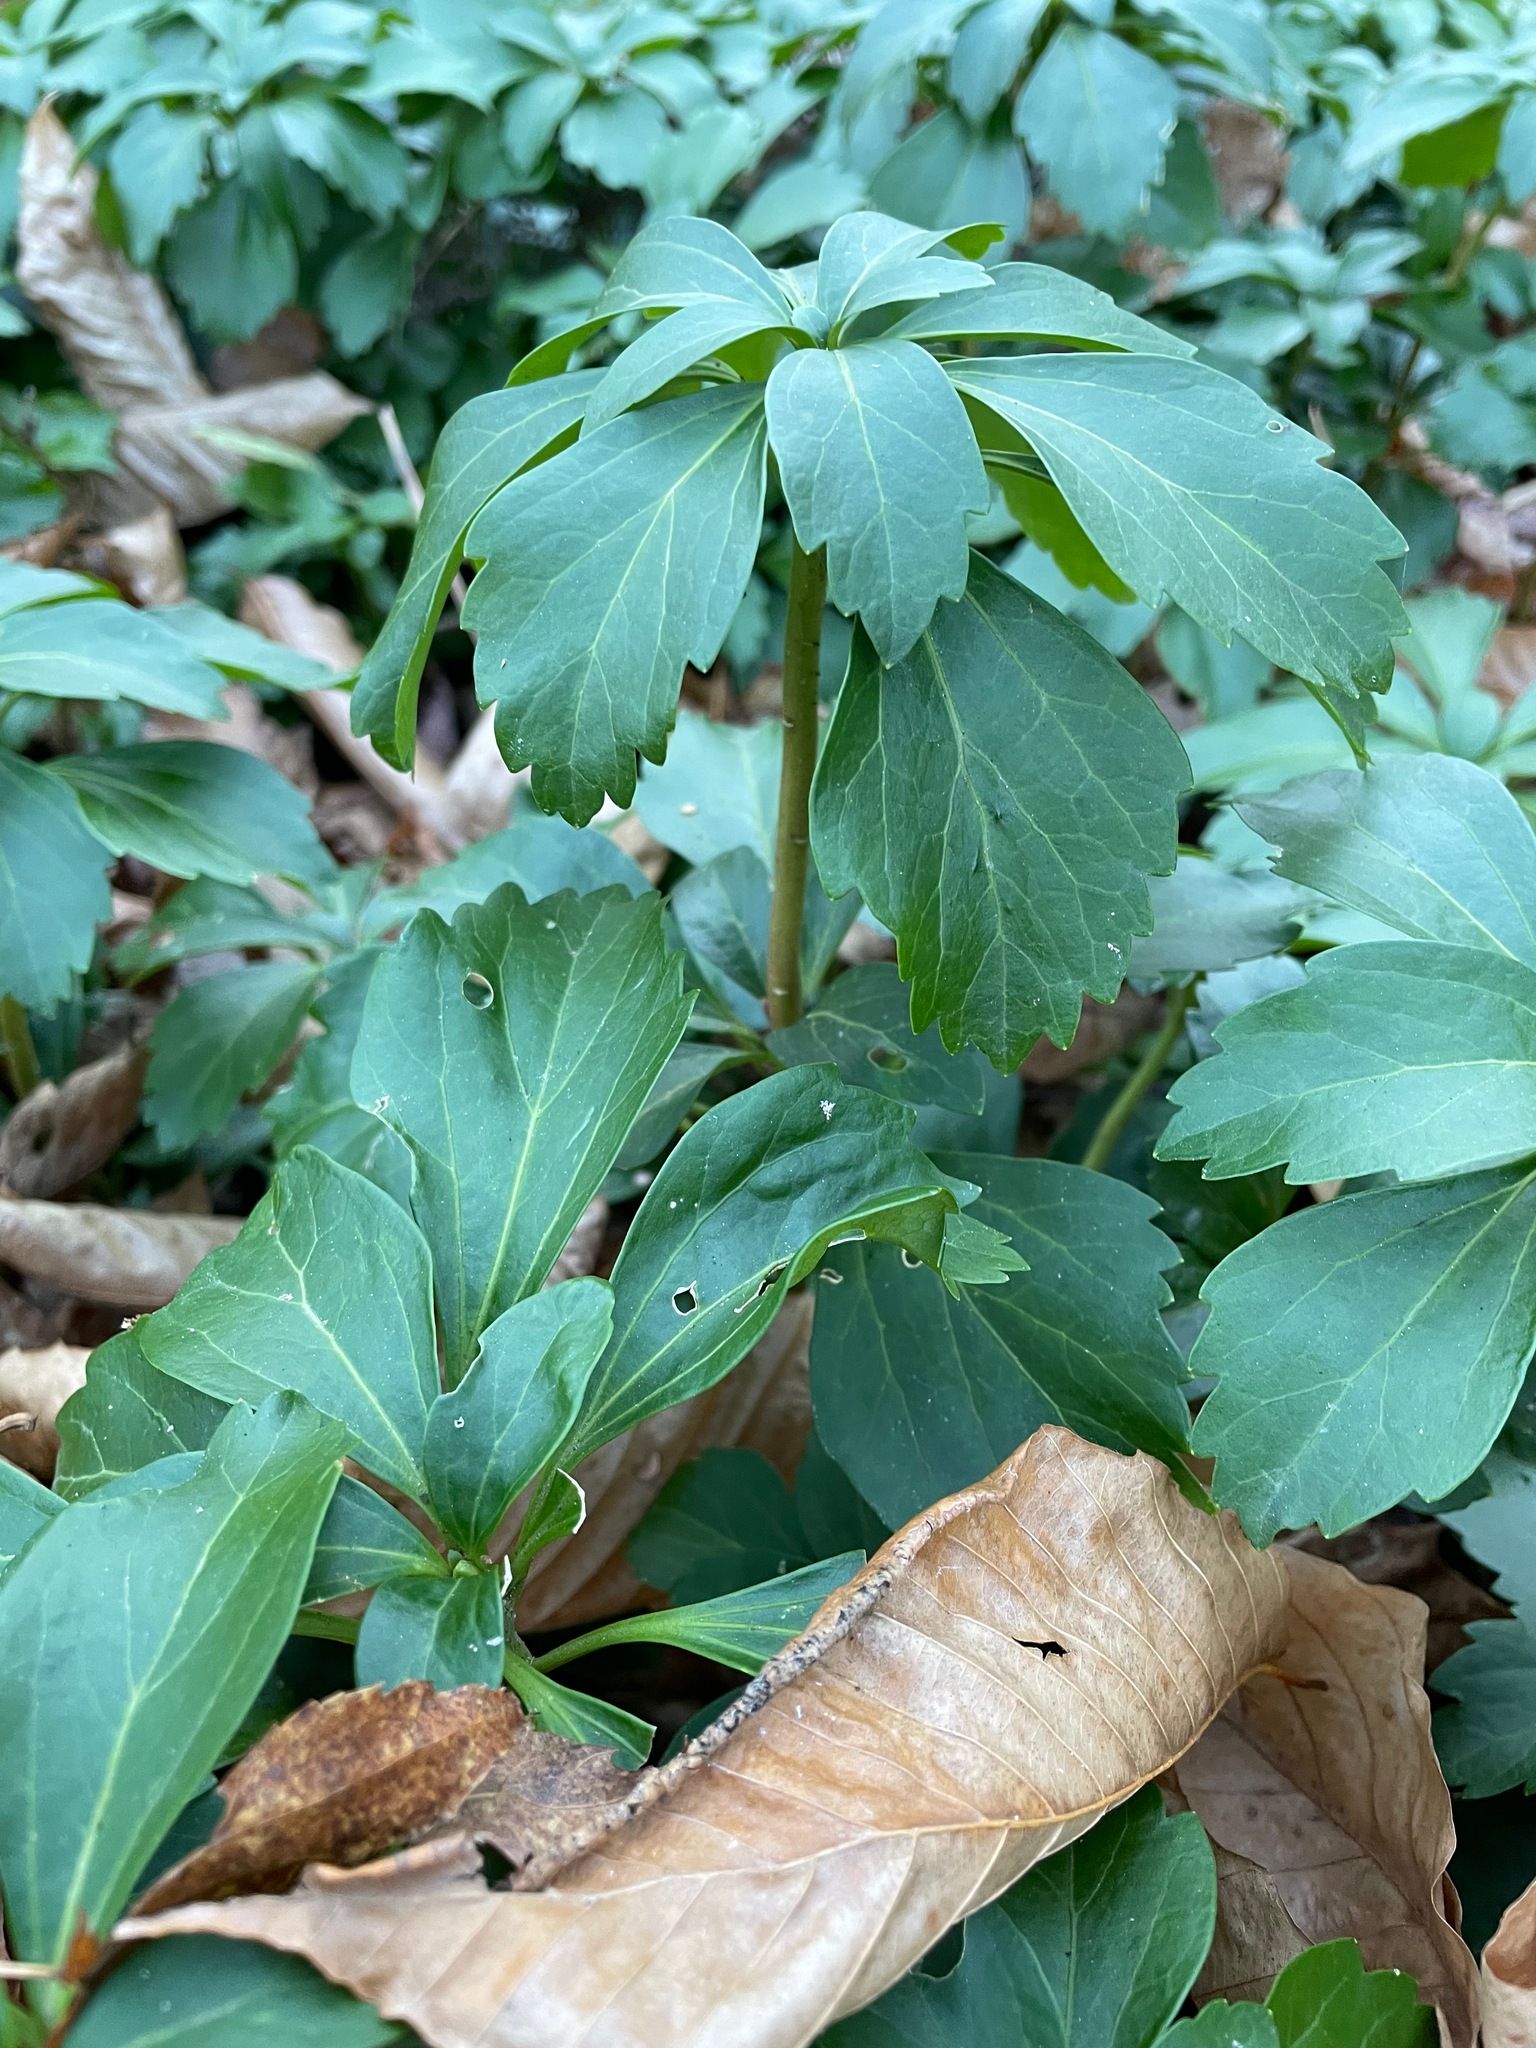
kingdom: Plantae
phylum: Tracheophyta
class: Magnoliopsida
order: Buxales
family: Buxaceae
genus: Pachysandra
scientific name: Pachysandra terminalis
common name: Japanese pachysandra
